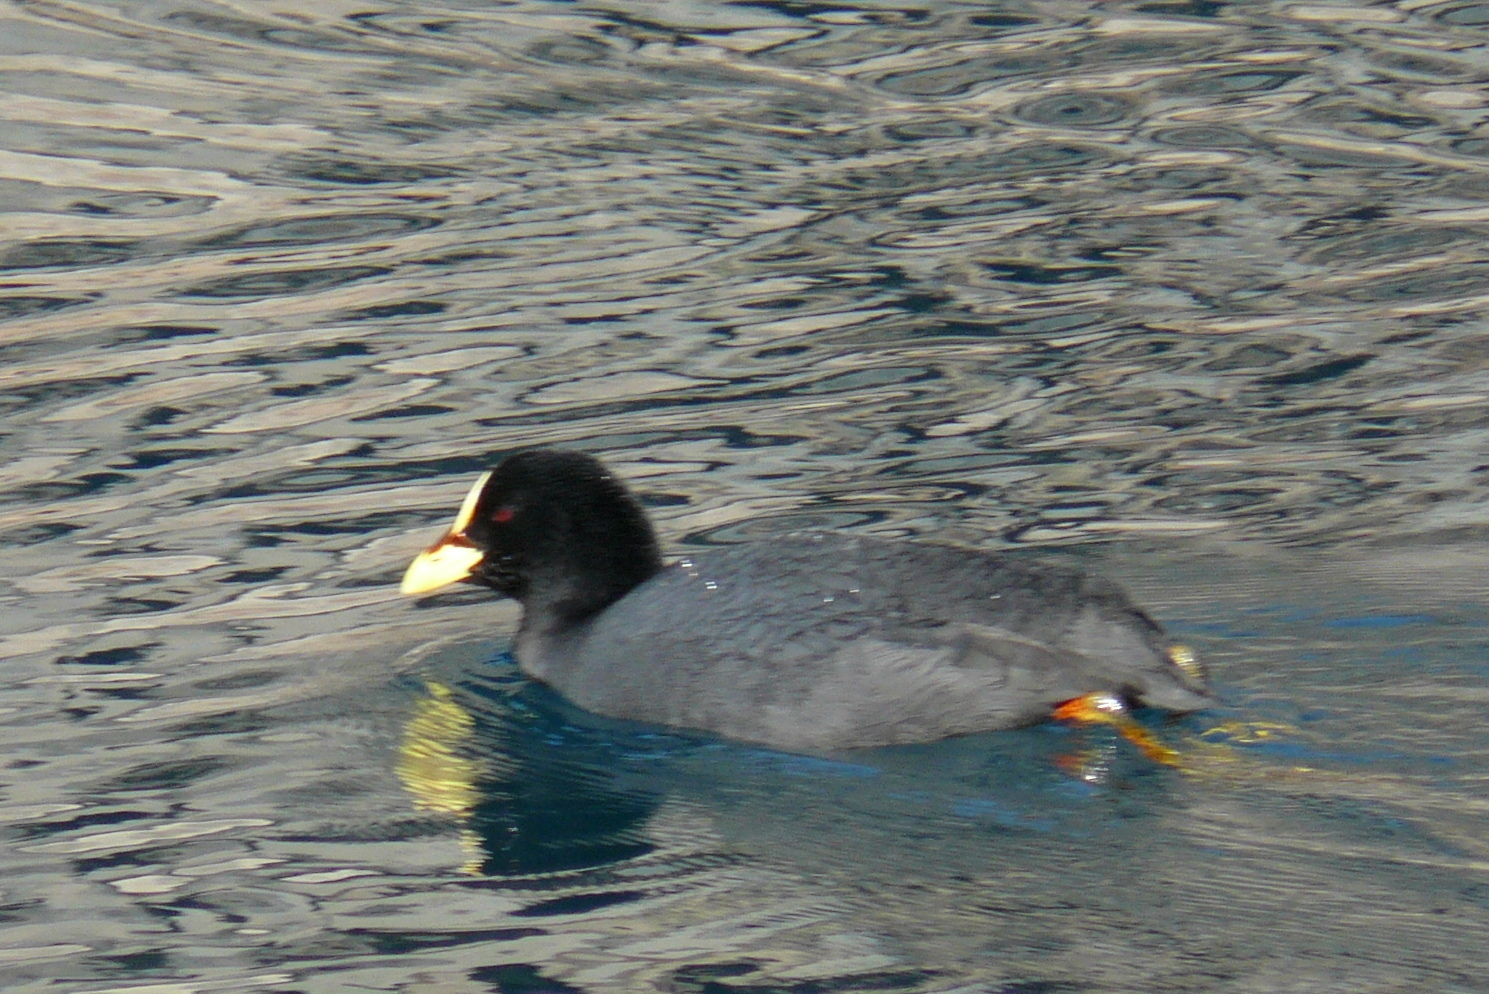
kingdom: Animalia
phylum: Chordata
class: Aves
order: Gruiformes
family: Rallidae
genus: Fulica
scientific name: Fulica armillata
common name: Red-gartered coot
